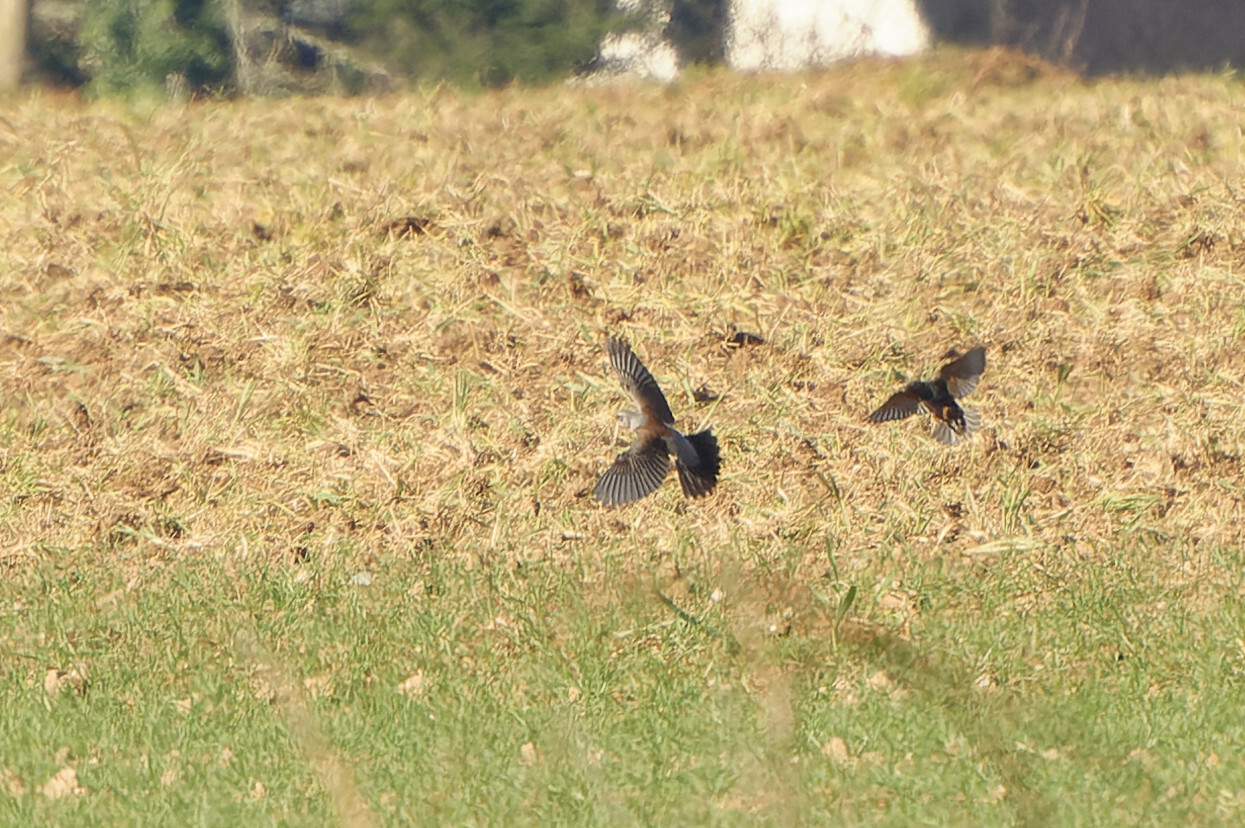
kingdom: Animalia
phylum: Chordata
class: Aves
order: Passeriformes
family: Turdidae
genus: Turdus
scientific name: Turdus pilaris
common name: Fieldfare
